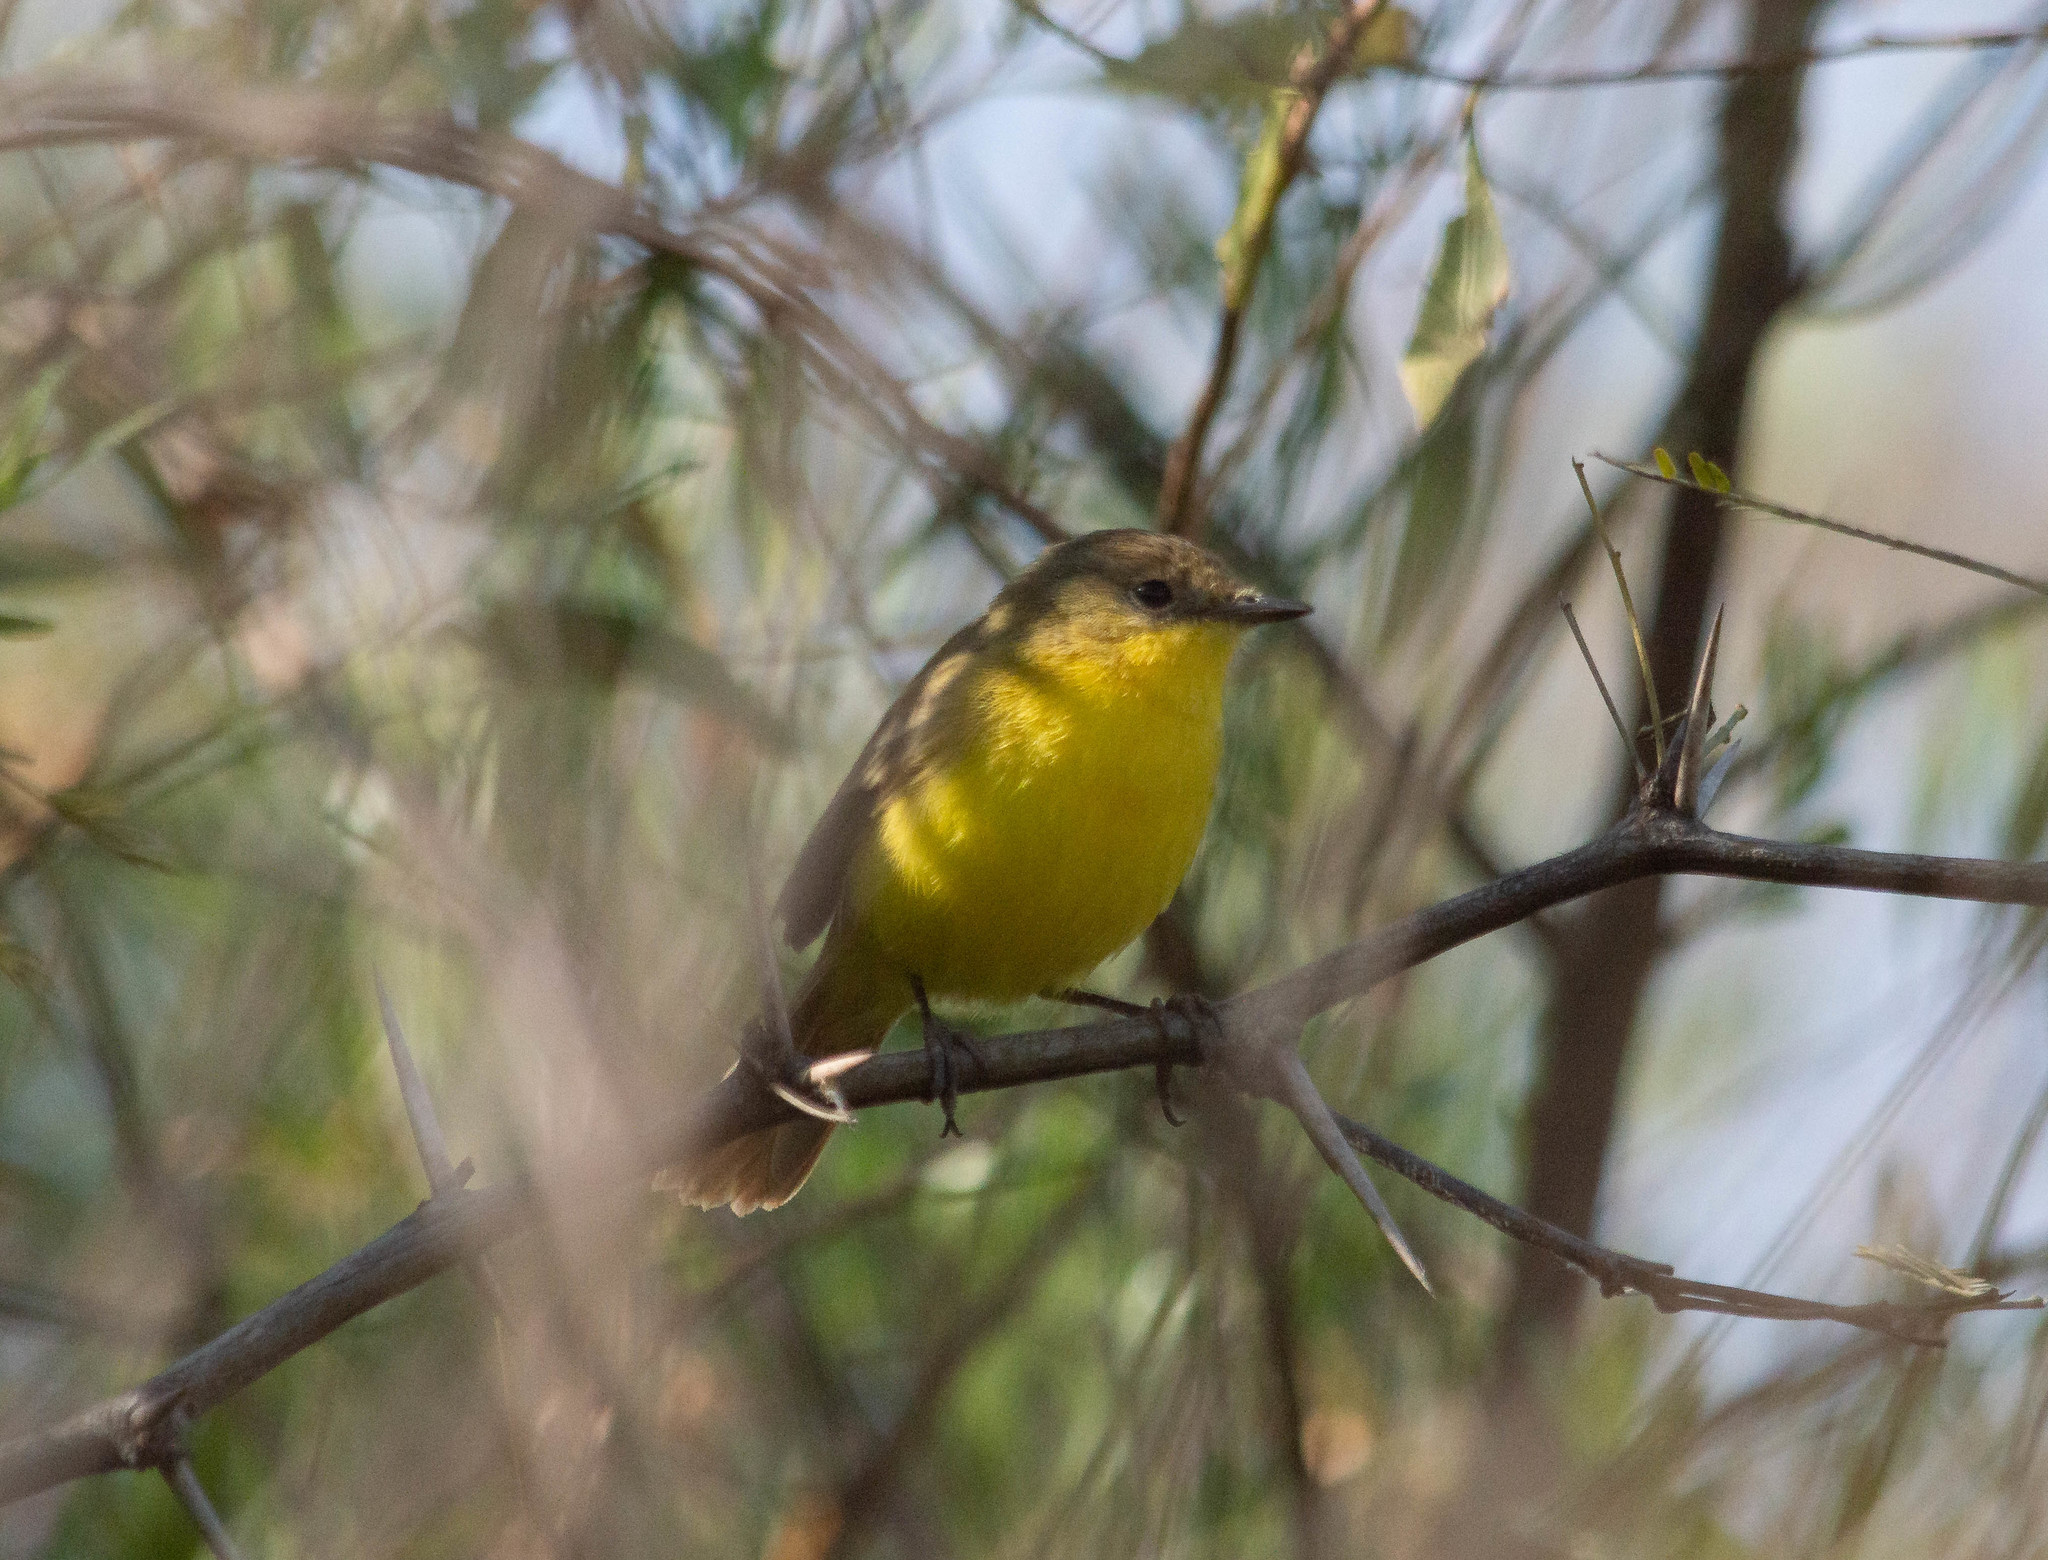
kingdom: Animalia
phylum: Chordata
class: Aves
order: Passeriformes
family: Tyrannidae
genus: Pseudocolopteryx
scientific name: Pseudocolopteryx dinelliana
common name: Dinelli's doradito
